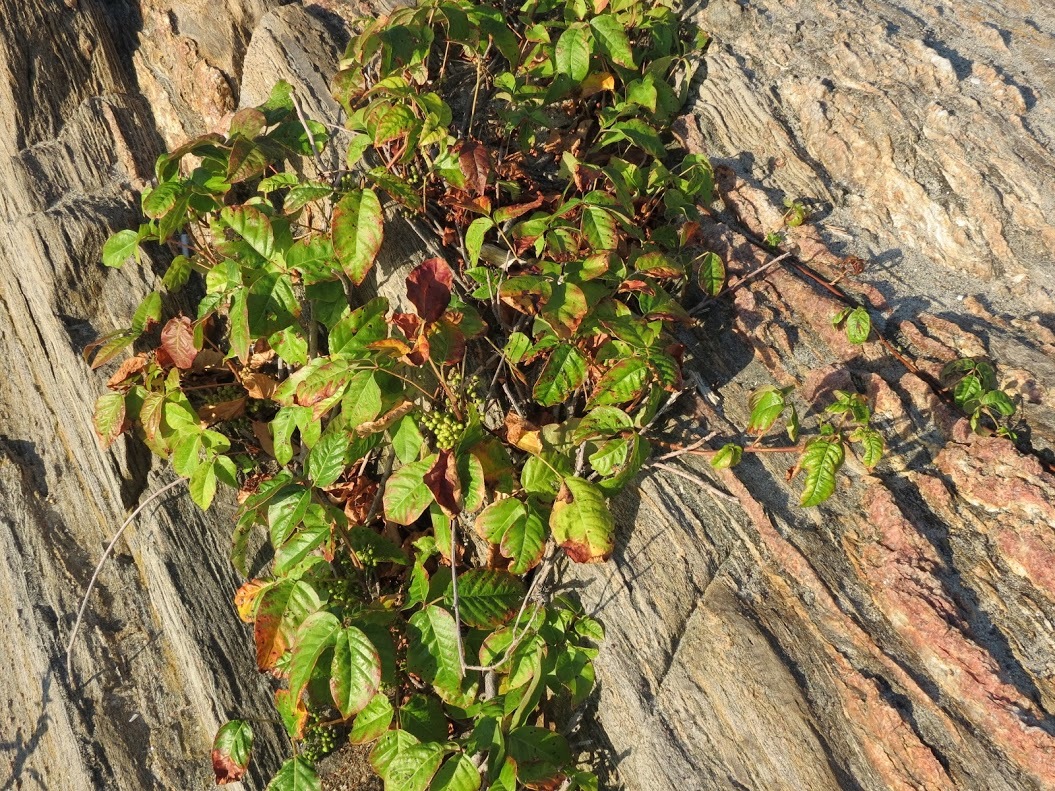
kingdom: Plantae
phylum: Tracheophyta
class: Magnoliopsida
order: Sapindales
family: Anacardiaceae
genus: Toxicodendron
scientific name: Toxicodendron radicans
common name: Poison ivy
